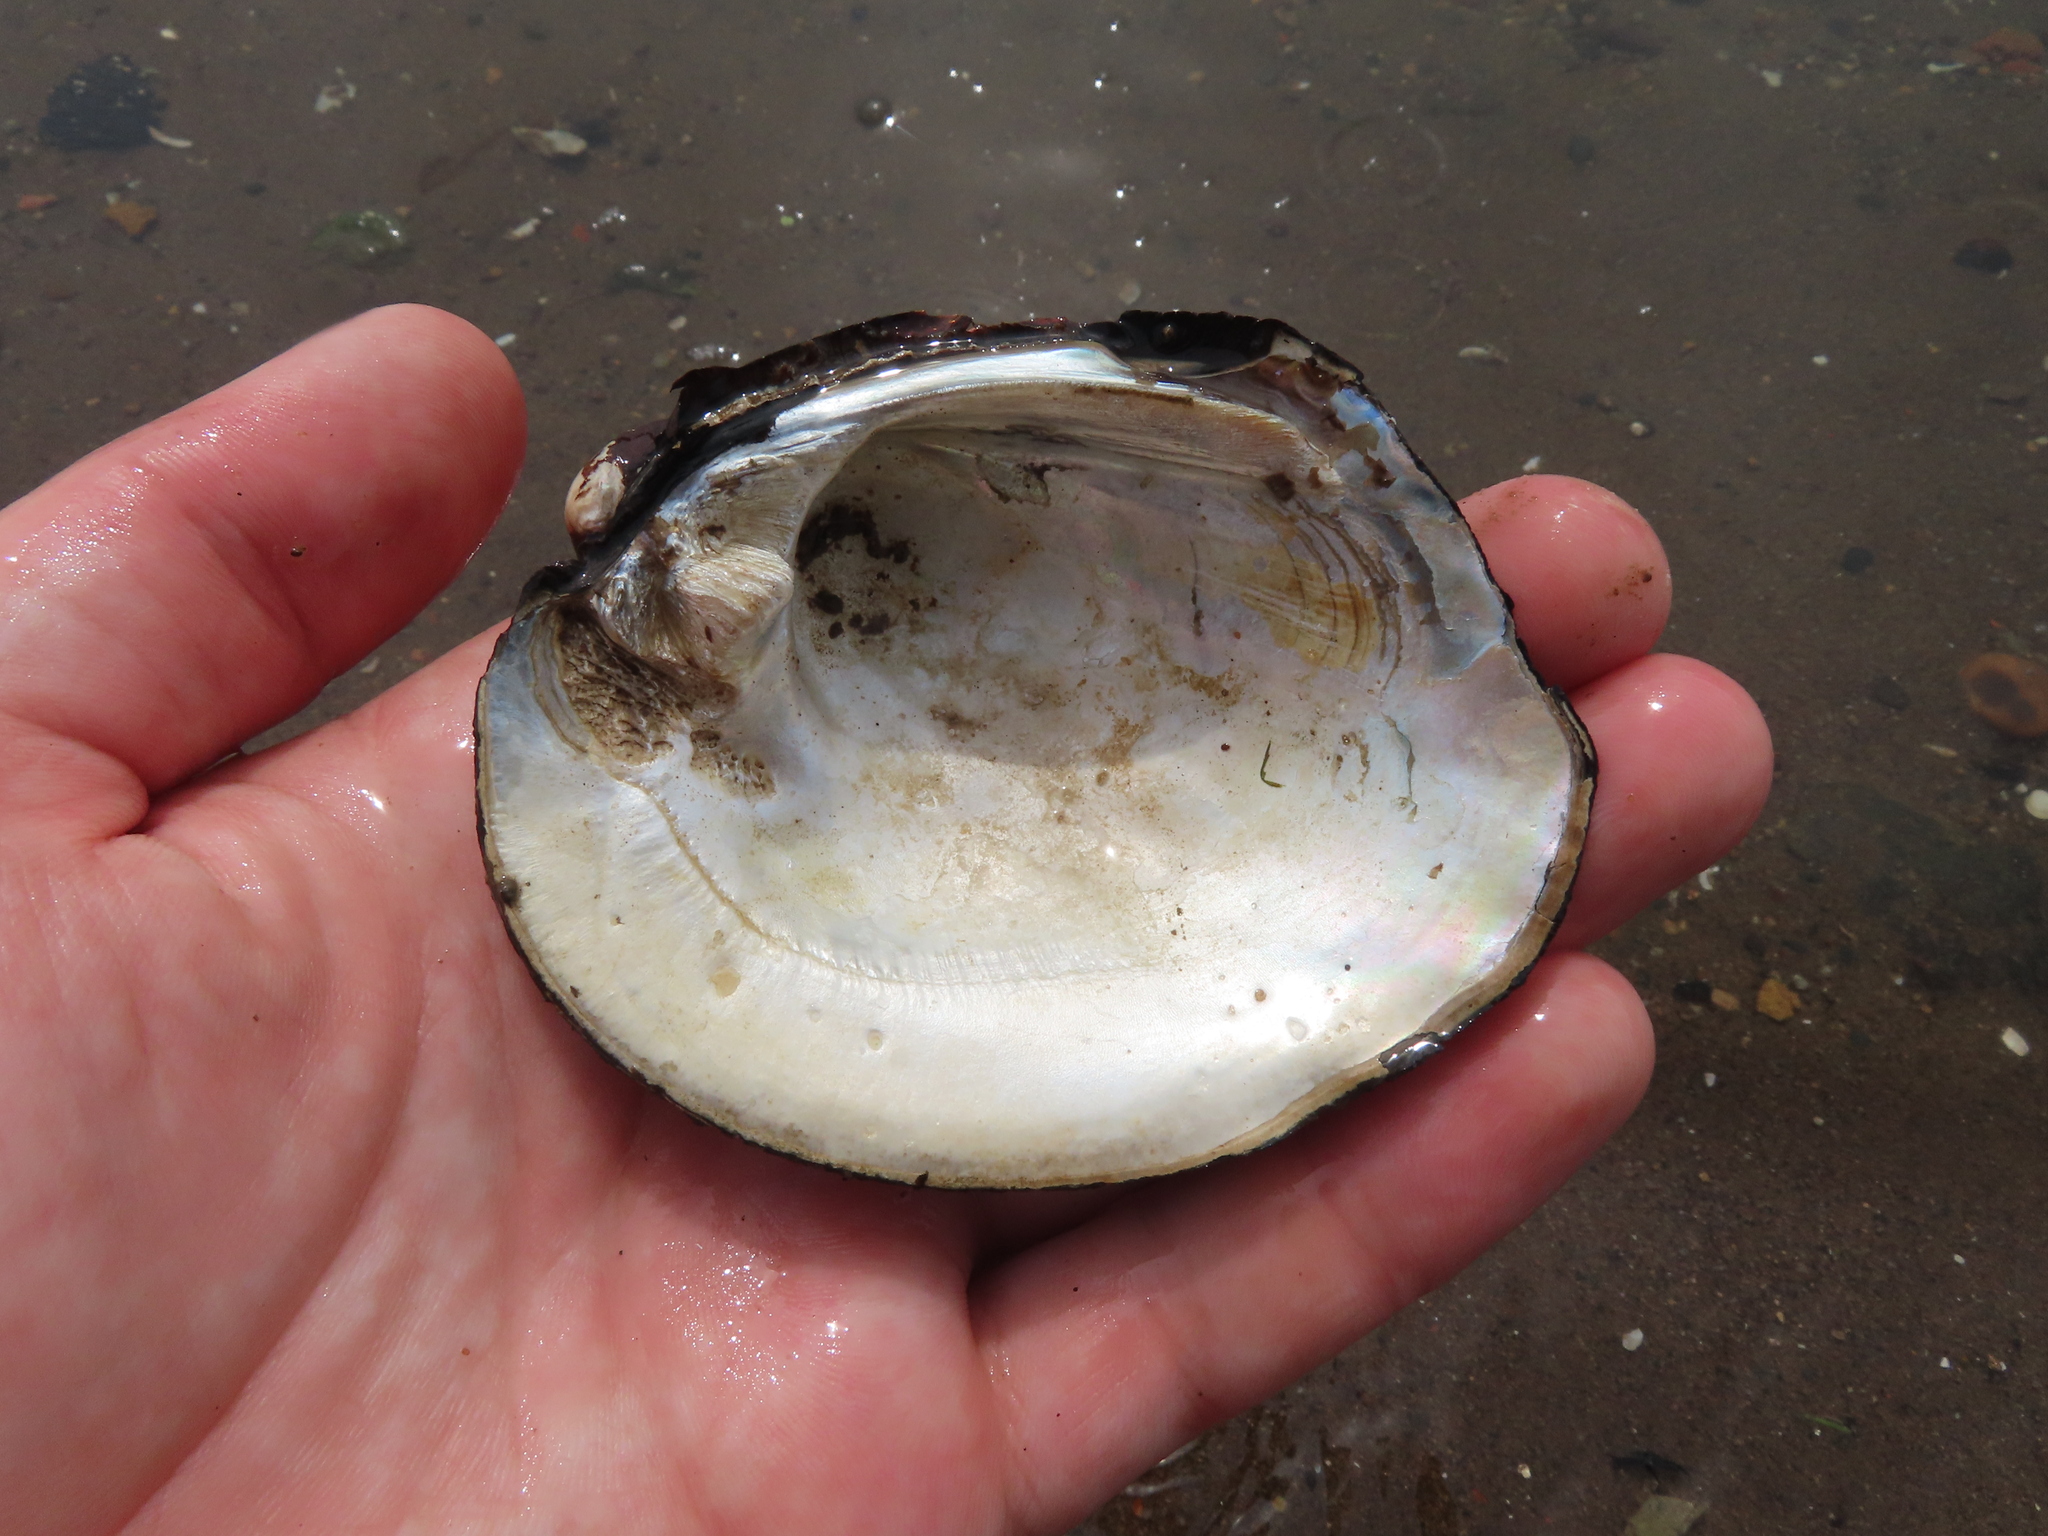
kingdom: Animalia
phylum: Mollusca
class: Bivalvia
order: Unionida
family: Unionidae
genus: Amblema
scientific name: Amblema plicata
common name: Threeridge
